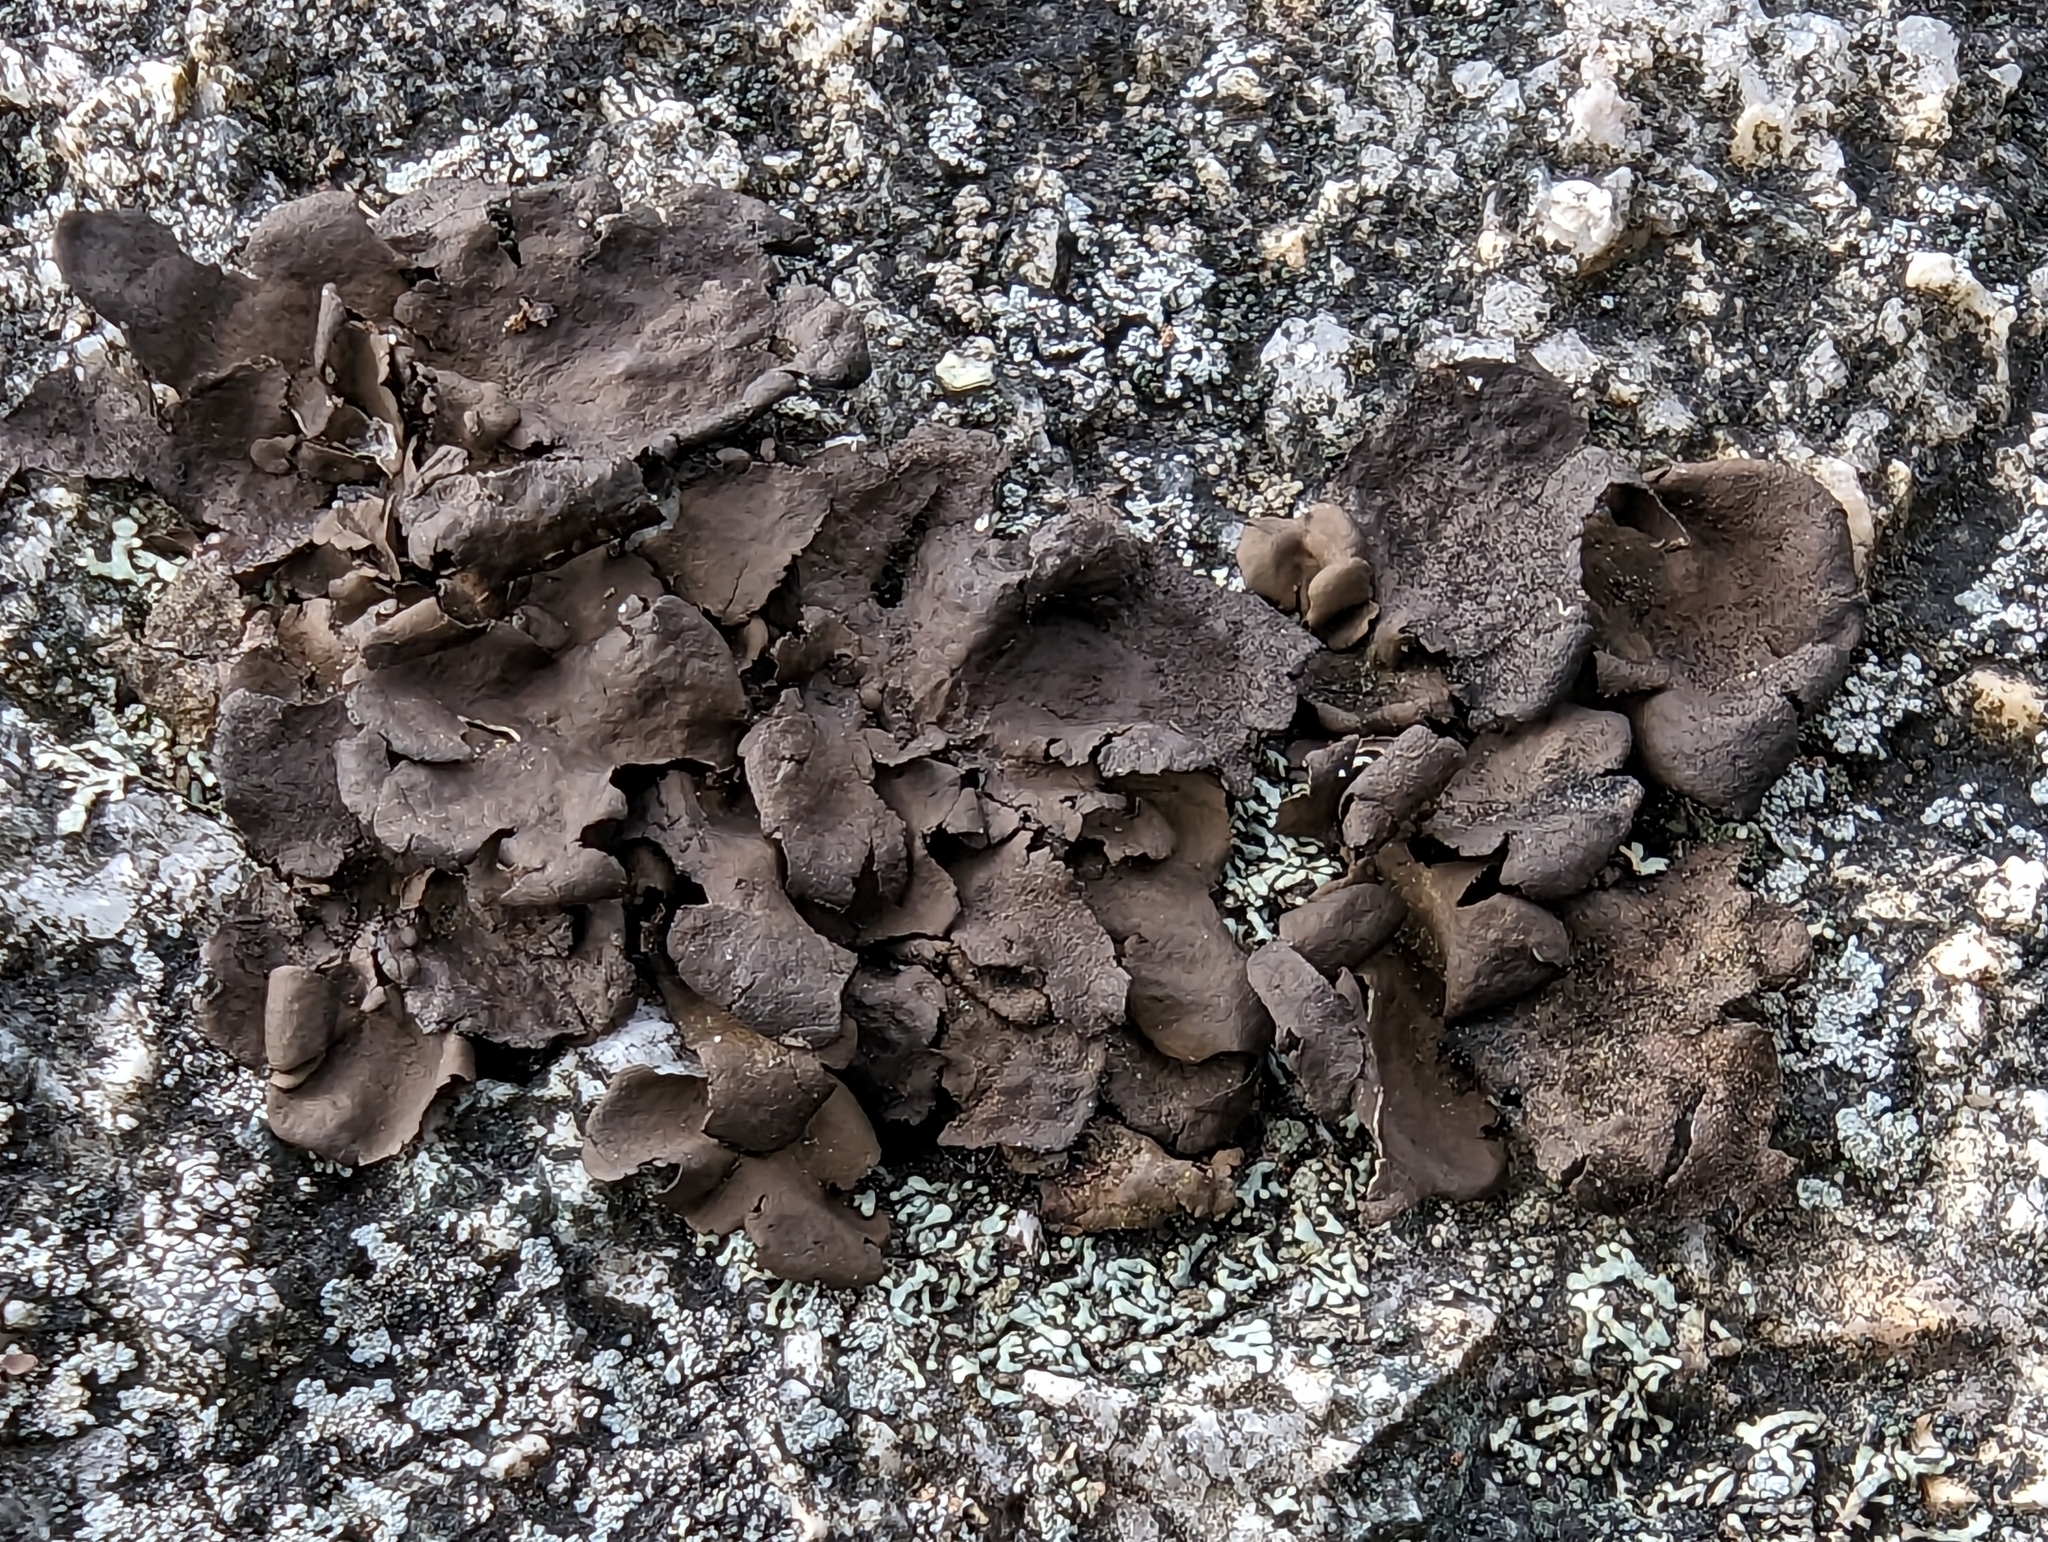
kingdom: Fungi
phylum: Ascomycota
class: Lecanoromycetes
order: Umbilicariales
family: Umbilicariaceae
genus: Umbilicaria
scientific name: Umbilicaria deusta
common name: Peppered rock tripe
